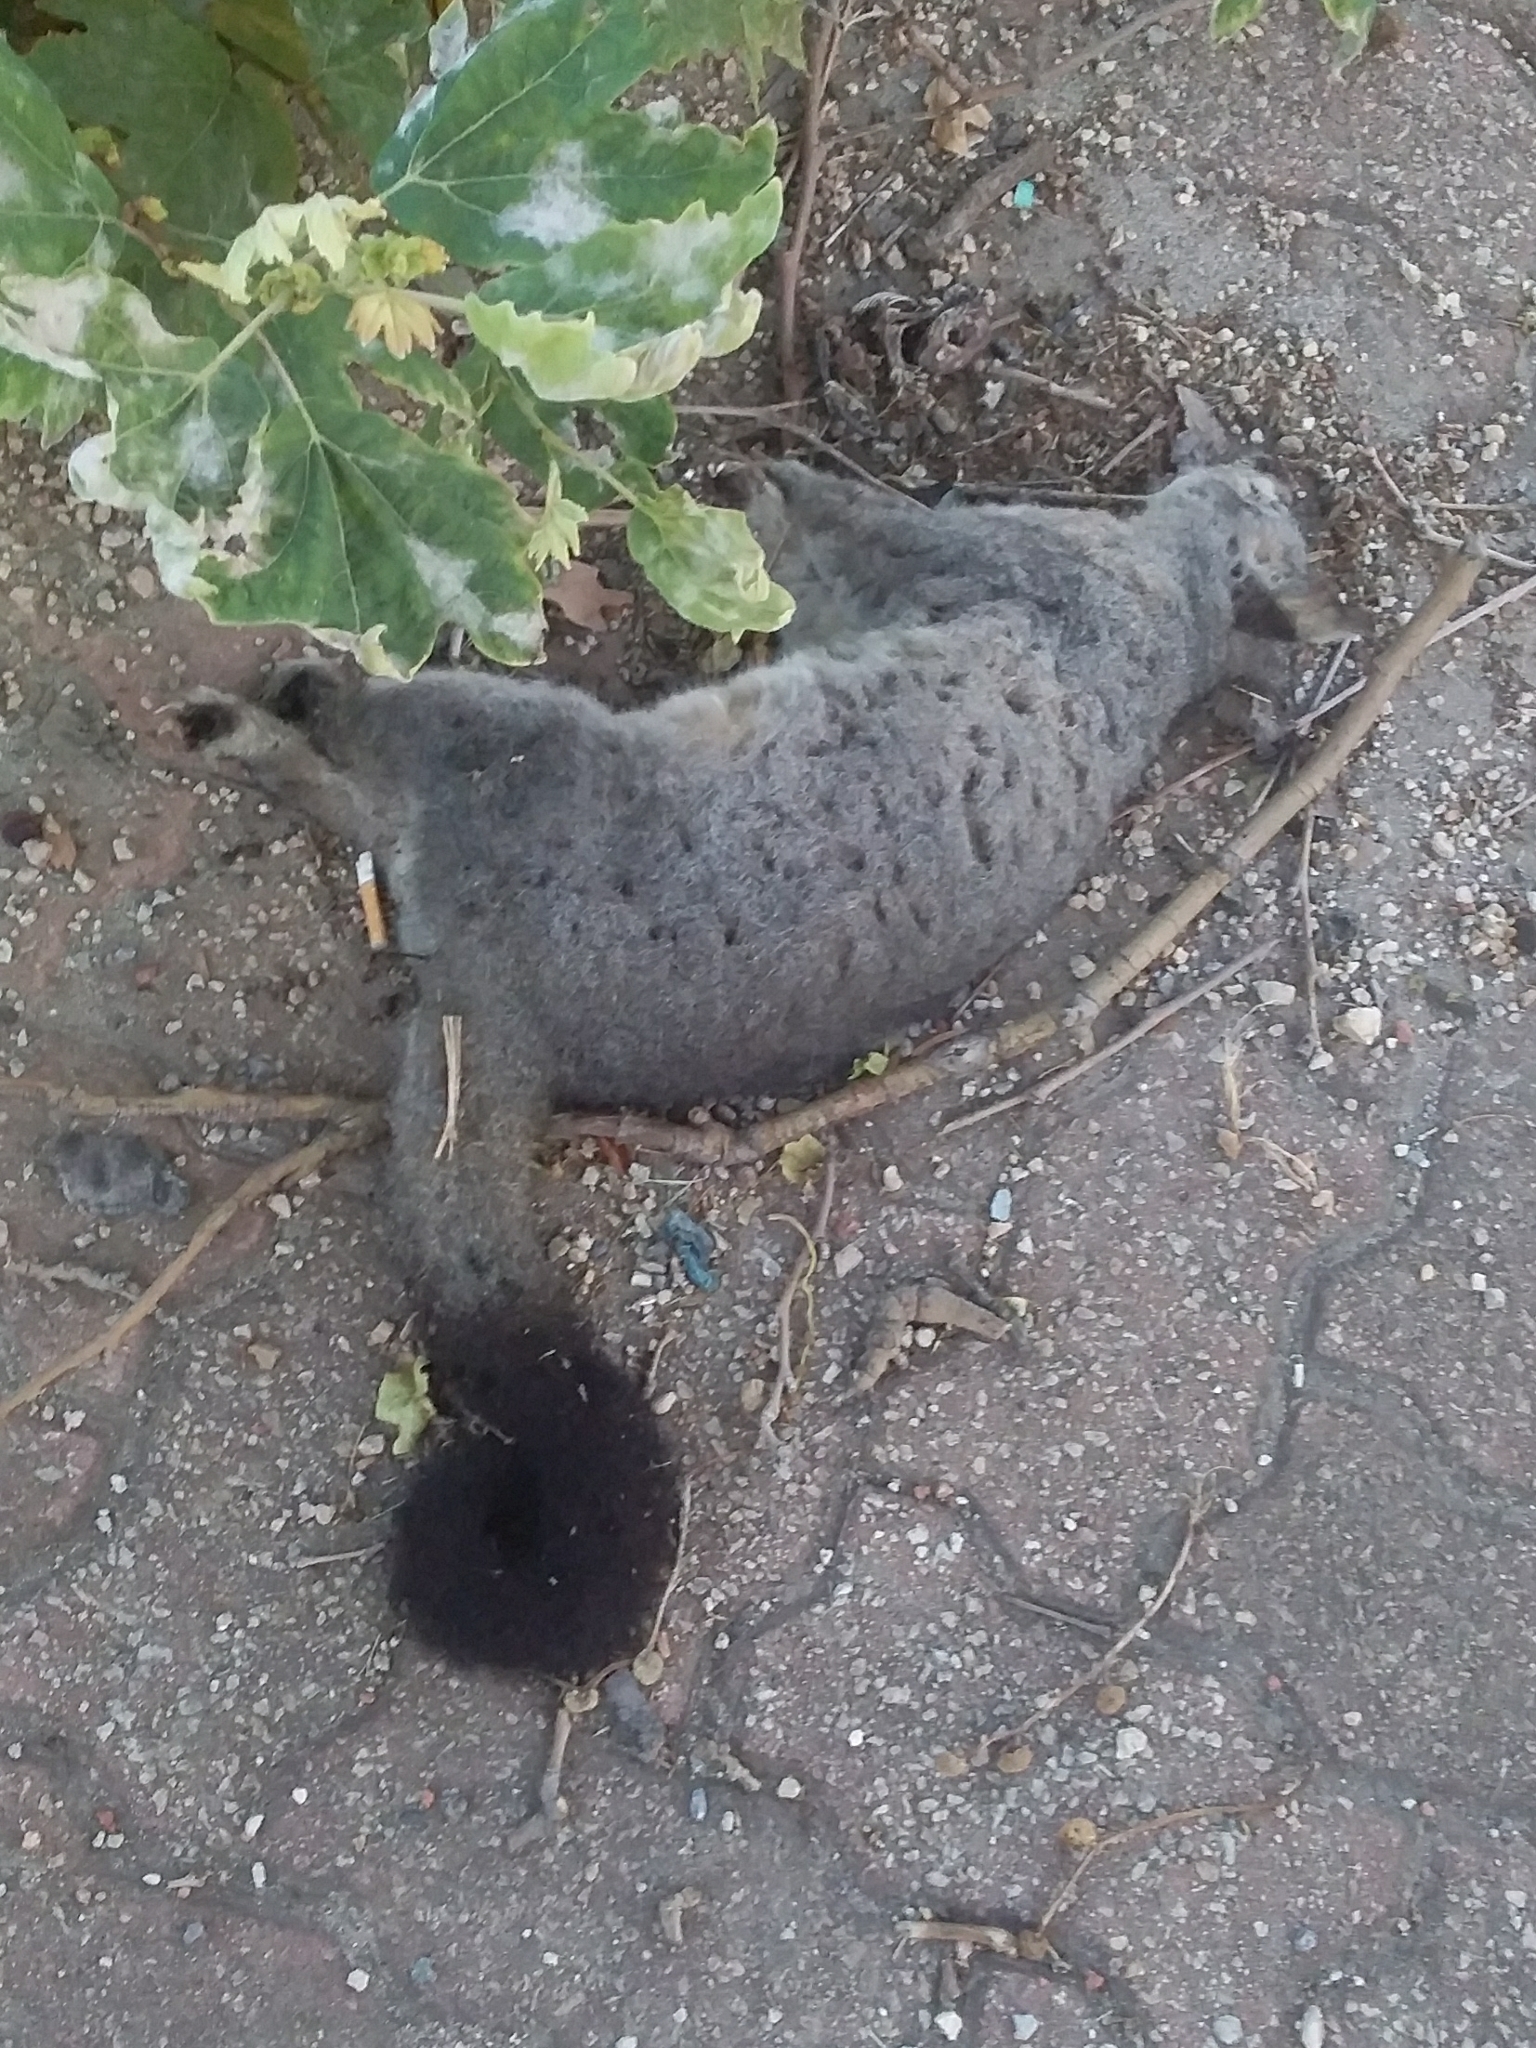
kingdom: Animalia
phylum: Chordata
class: Mammalia
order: Diprotodontia
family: Phalangeridae
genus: Trichosurus
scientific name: Trichosurus vulpecula
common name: Common brushtail
